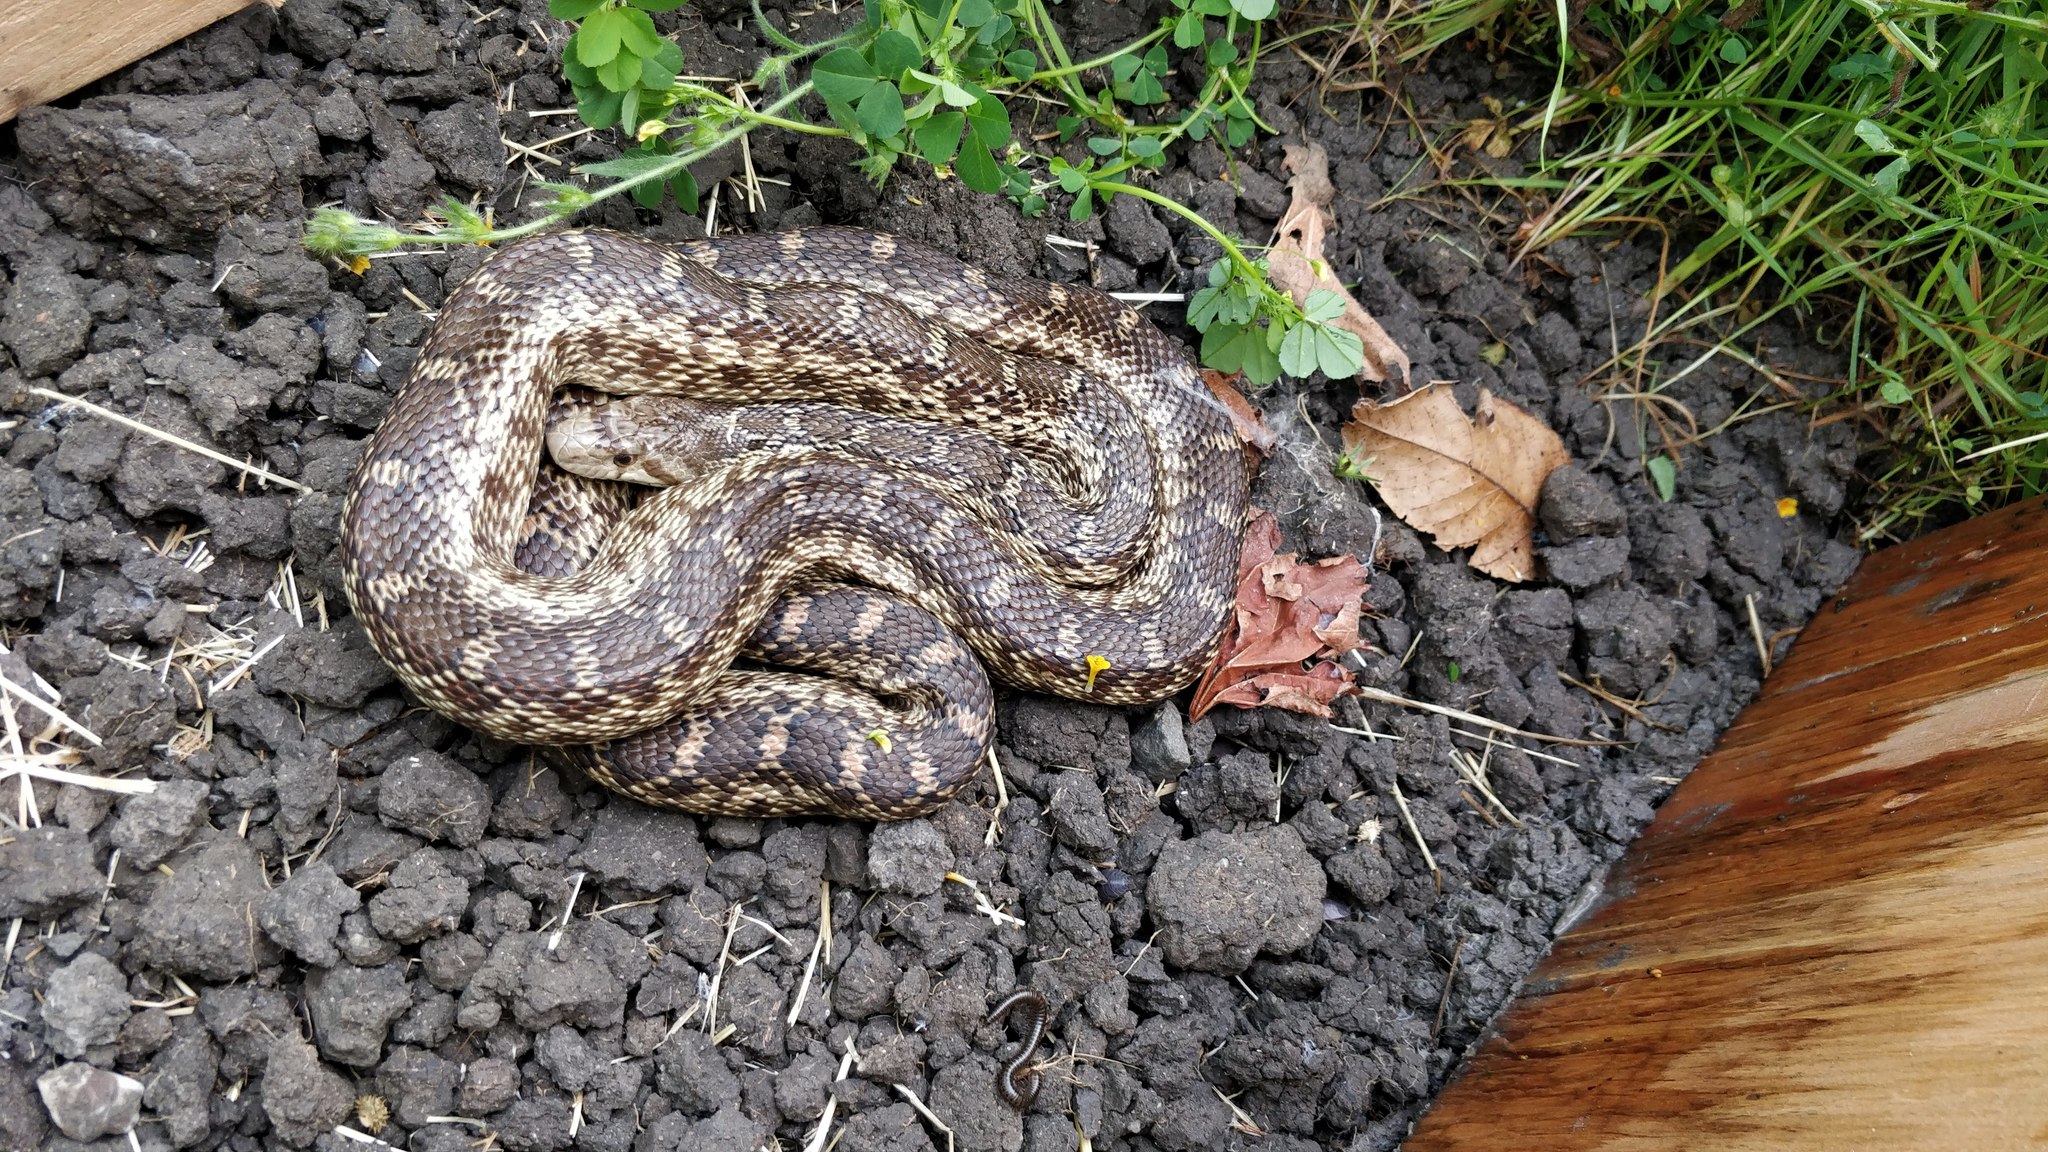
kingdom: Animalia
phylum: Chordata
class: Squamata
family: Colubridae
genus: Pituophis
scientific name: Pituophis catenifer
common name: Gopher snake
